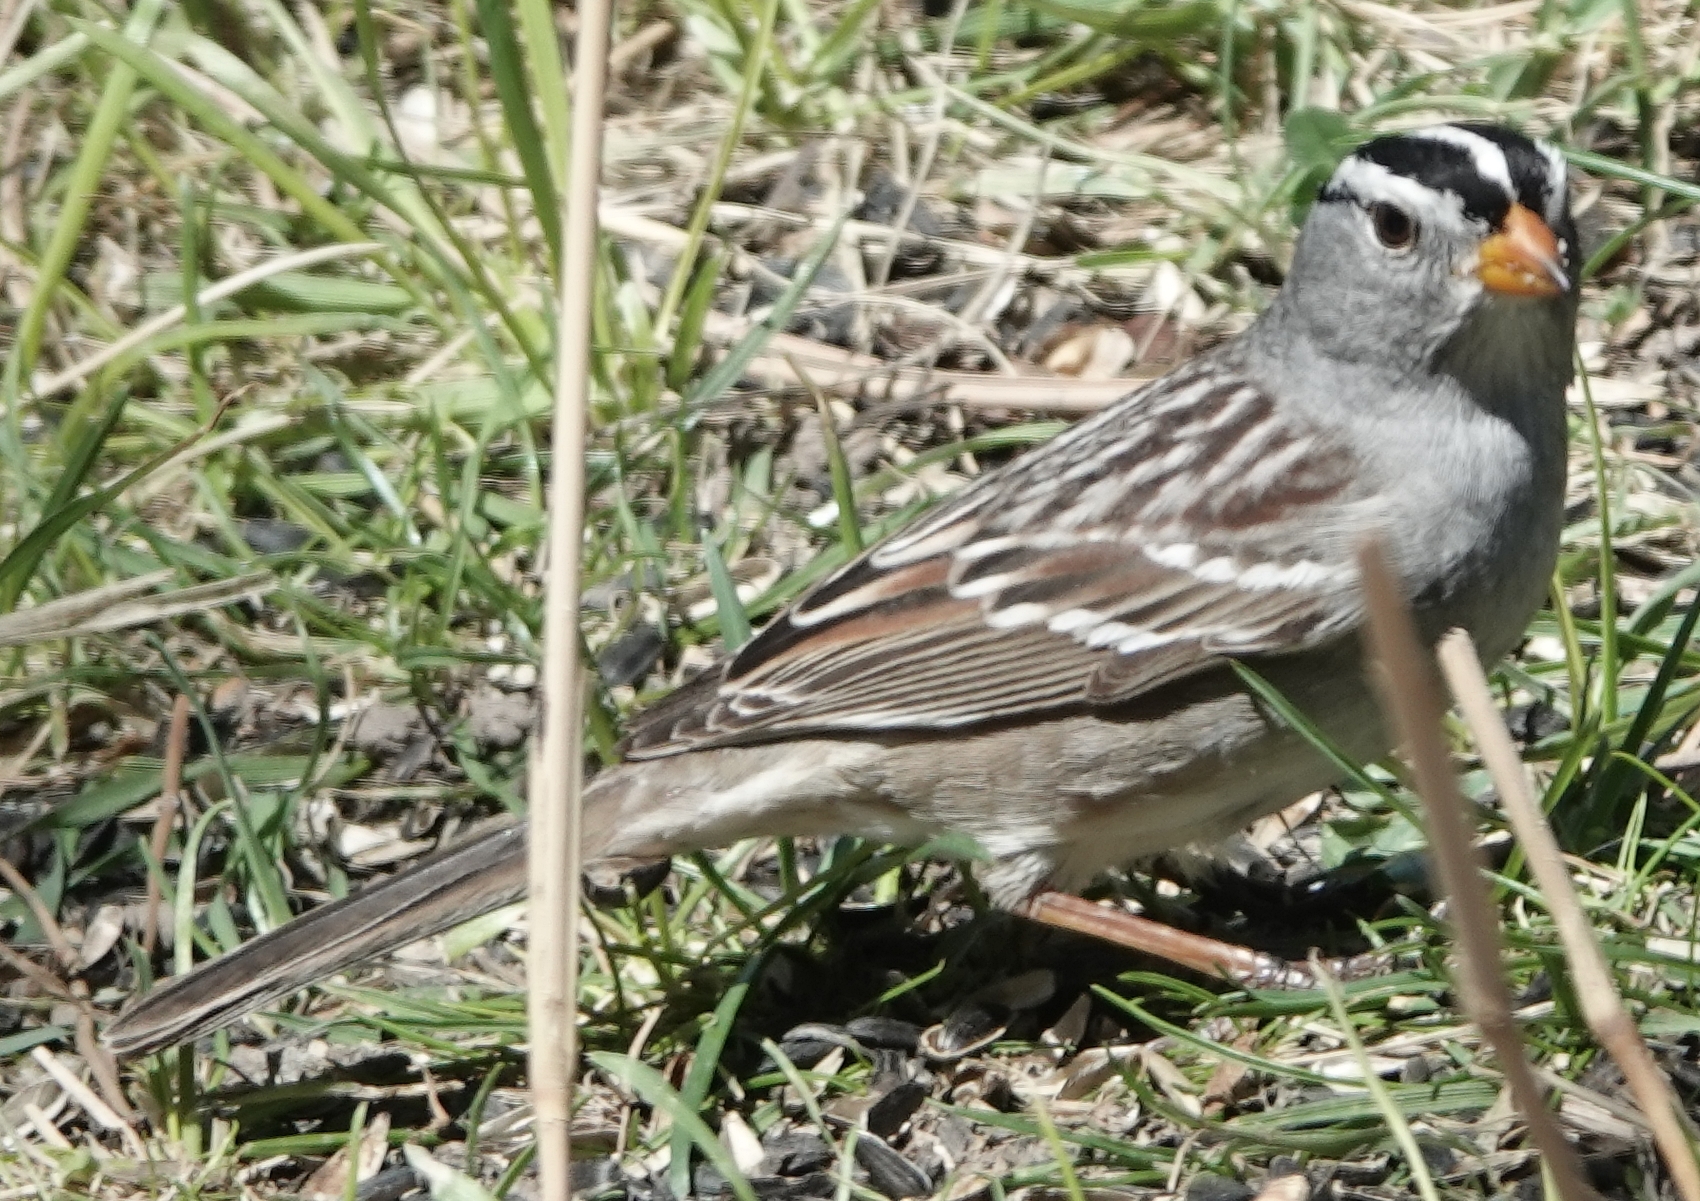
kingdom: Animalia
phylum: Chordata
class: Aves
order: Passeriformes
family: Passerellidae
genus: Zonotrichia
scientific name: Zonotrichia leucophrys
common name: White-crowned sparrow
